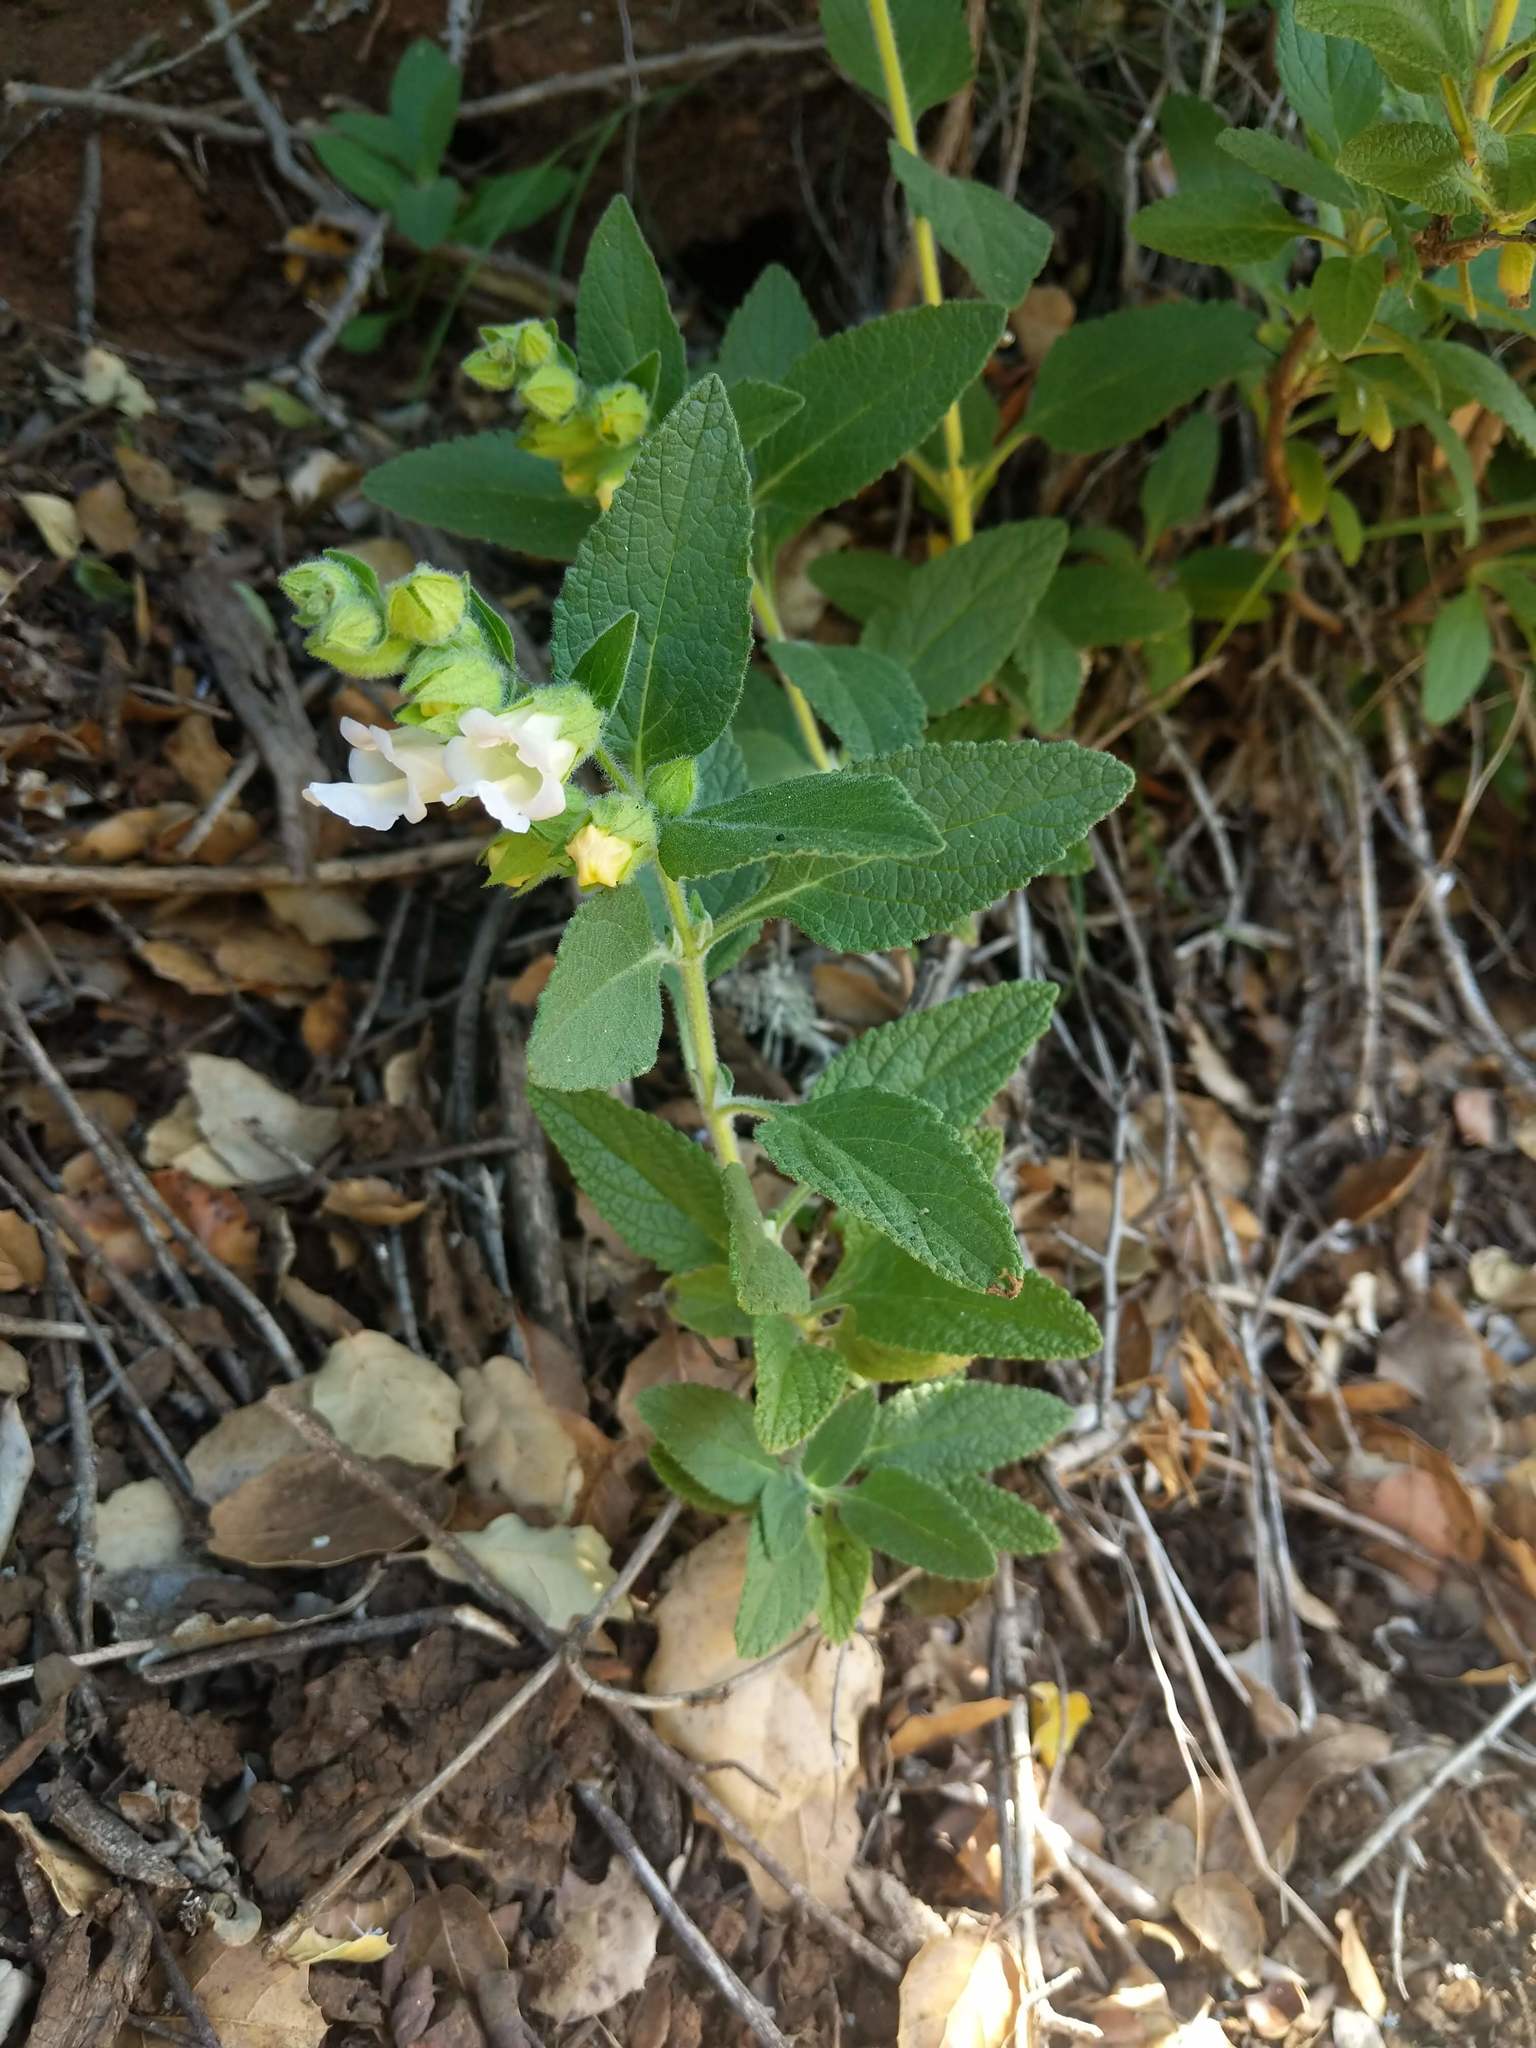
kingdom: Plantae
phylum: Tracheophyta
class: Magnoliopsida
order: Lamiales
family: Lamiaceae
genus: Lepechinia
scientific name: Lepechinia calycina
